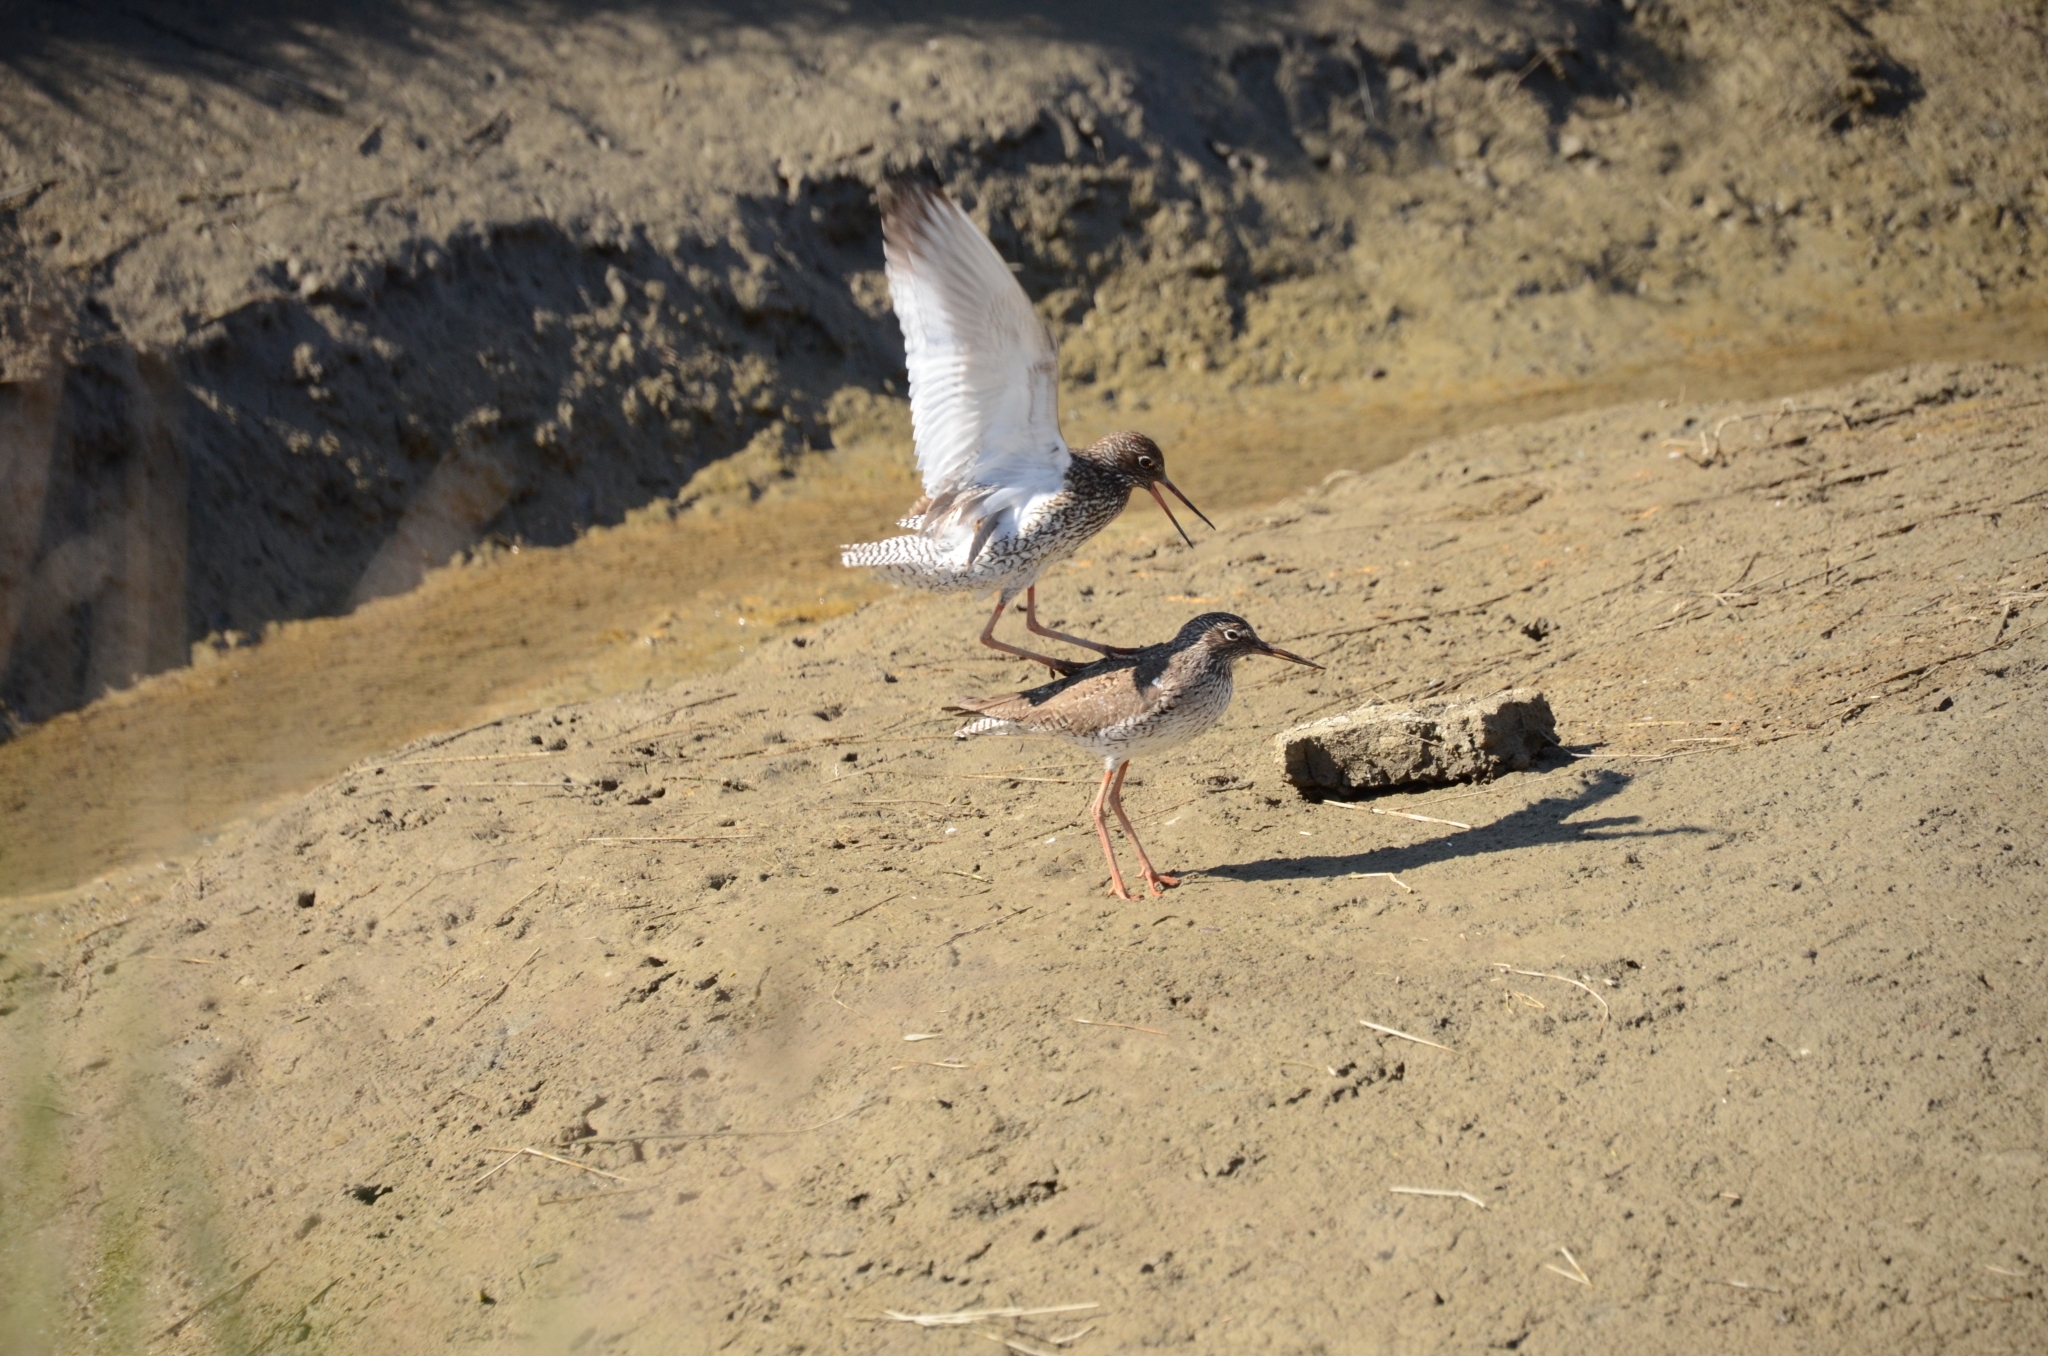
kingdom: Animalia
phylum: Chordata
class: Aves
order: Charadriiformes
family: Scolopacidae
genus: Tringa
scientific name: Tringa totanus
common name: Common redshank
